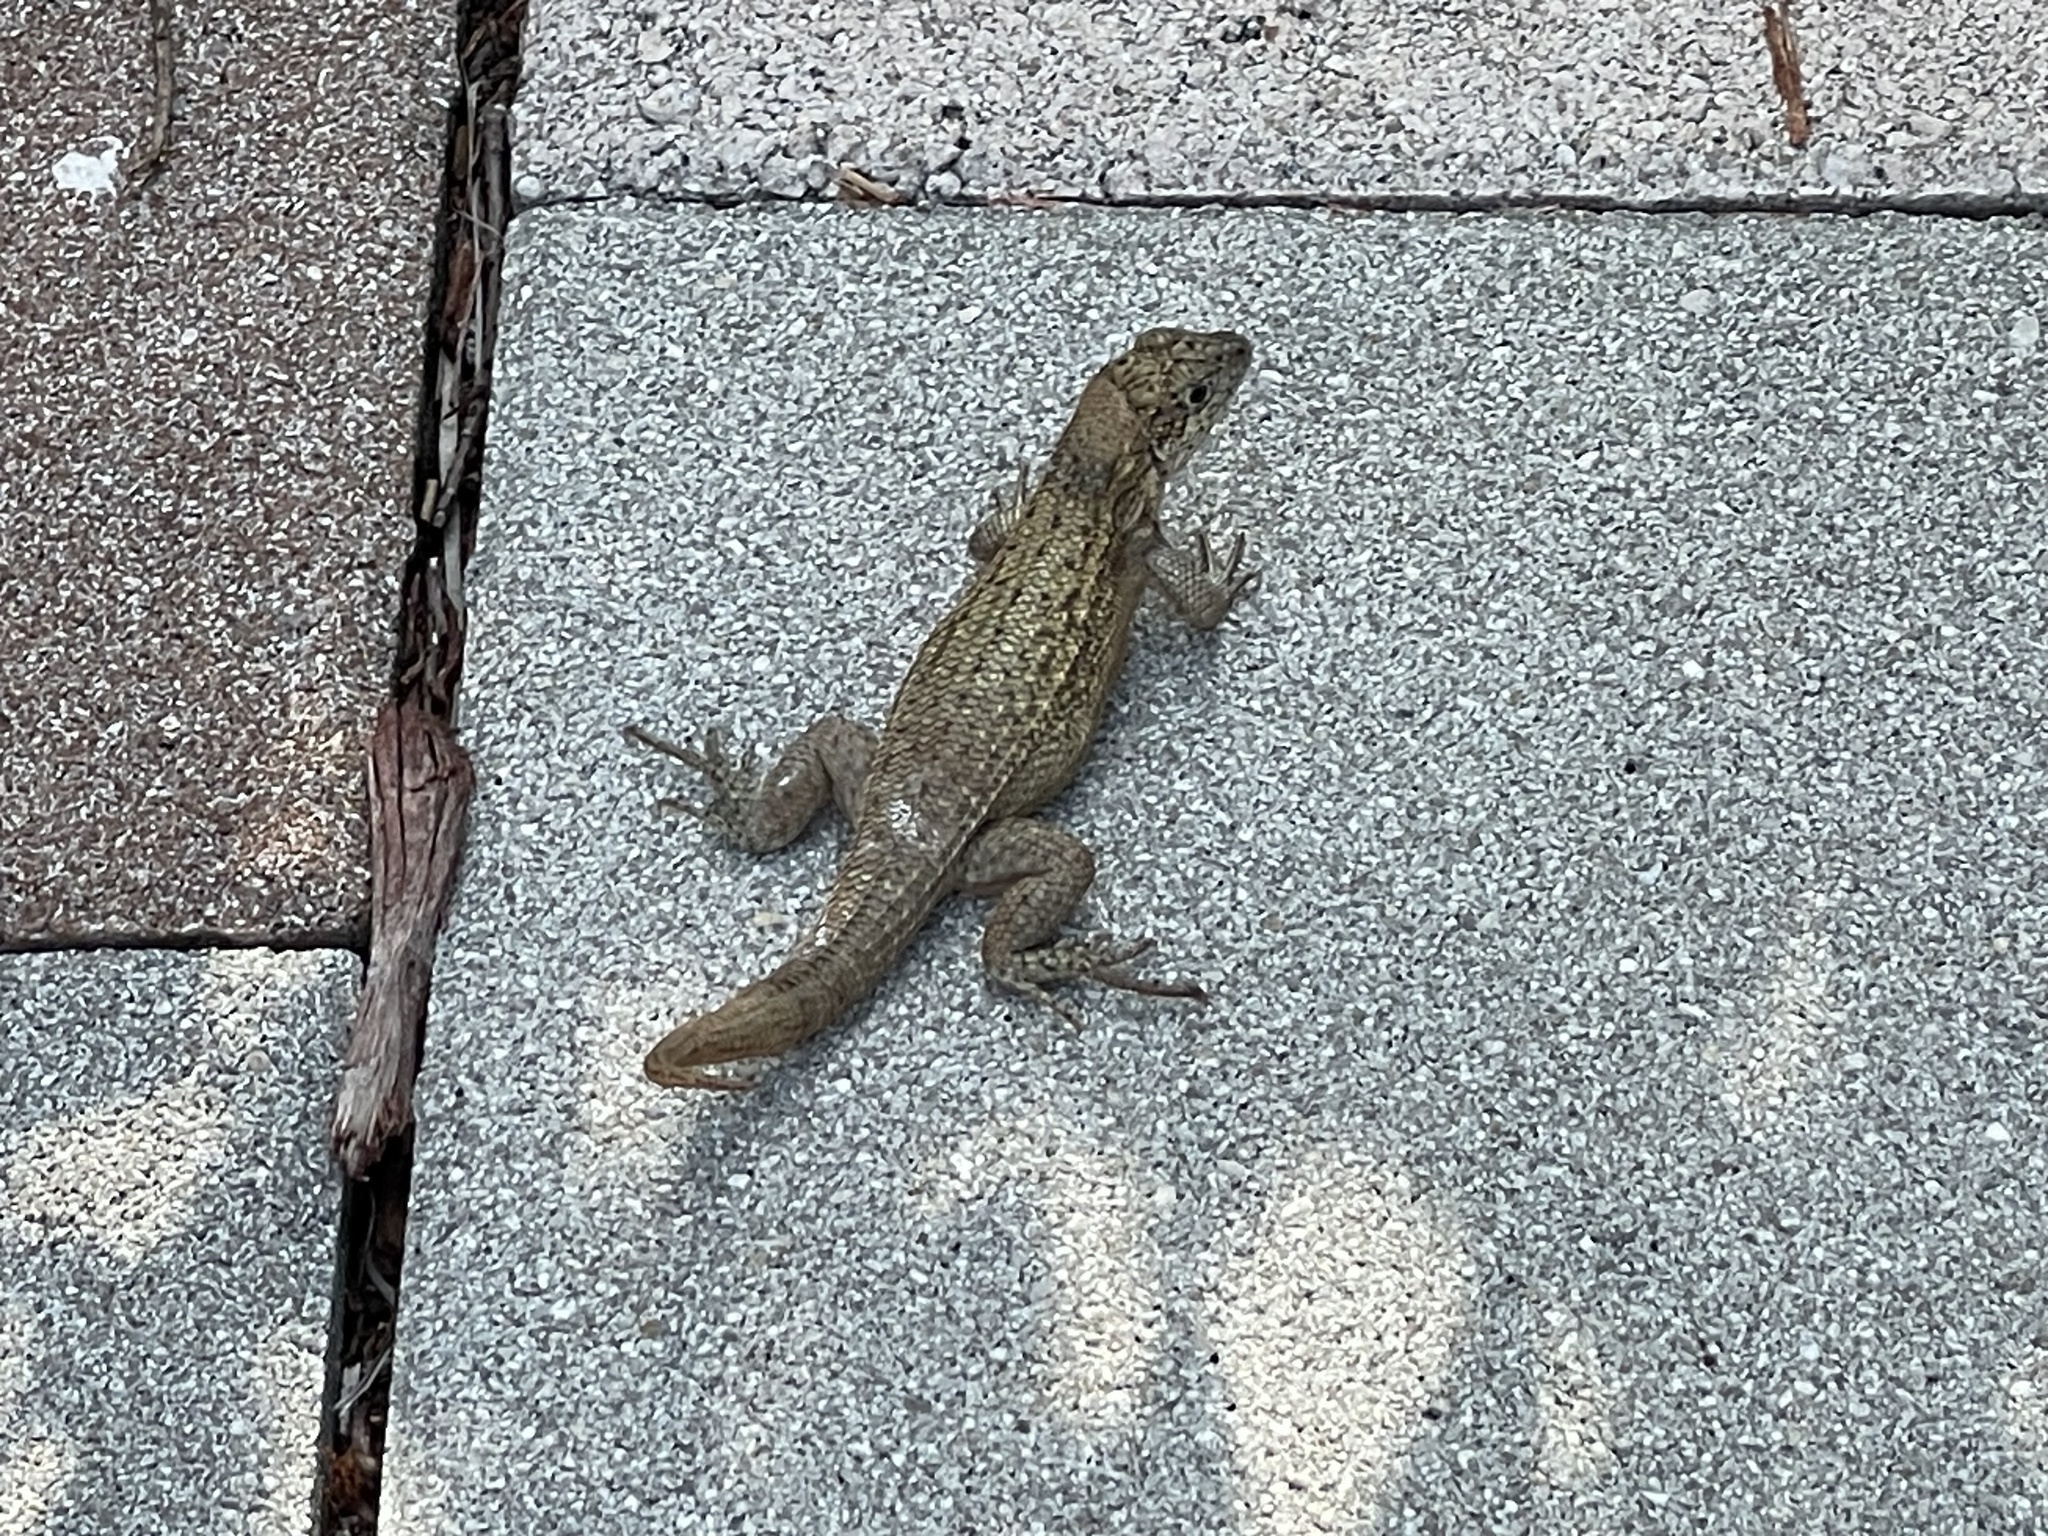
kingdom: Animalia
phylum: Chordata
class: Squamata
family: Leiocephalidae
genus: Leiocephalus
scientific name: Leiocephalus carinatus
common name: Northern curly-tailed lizard
